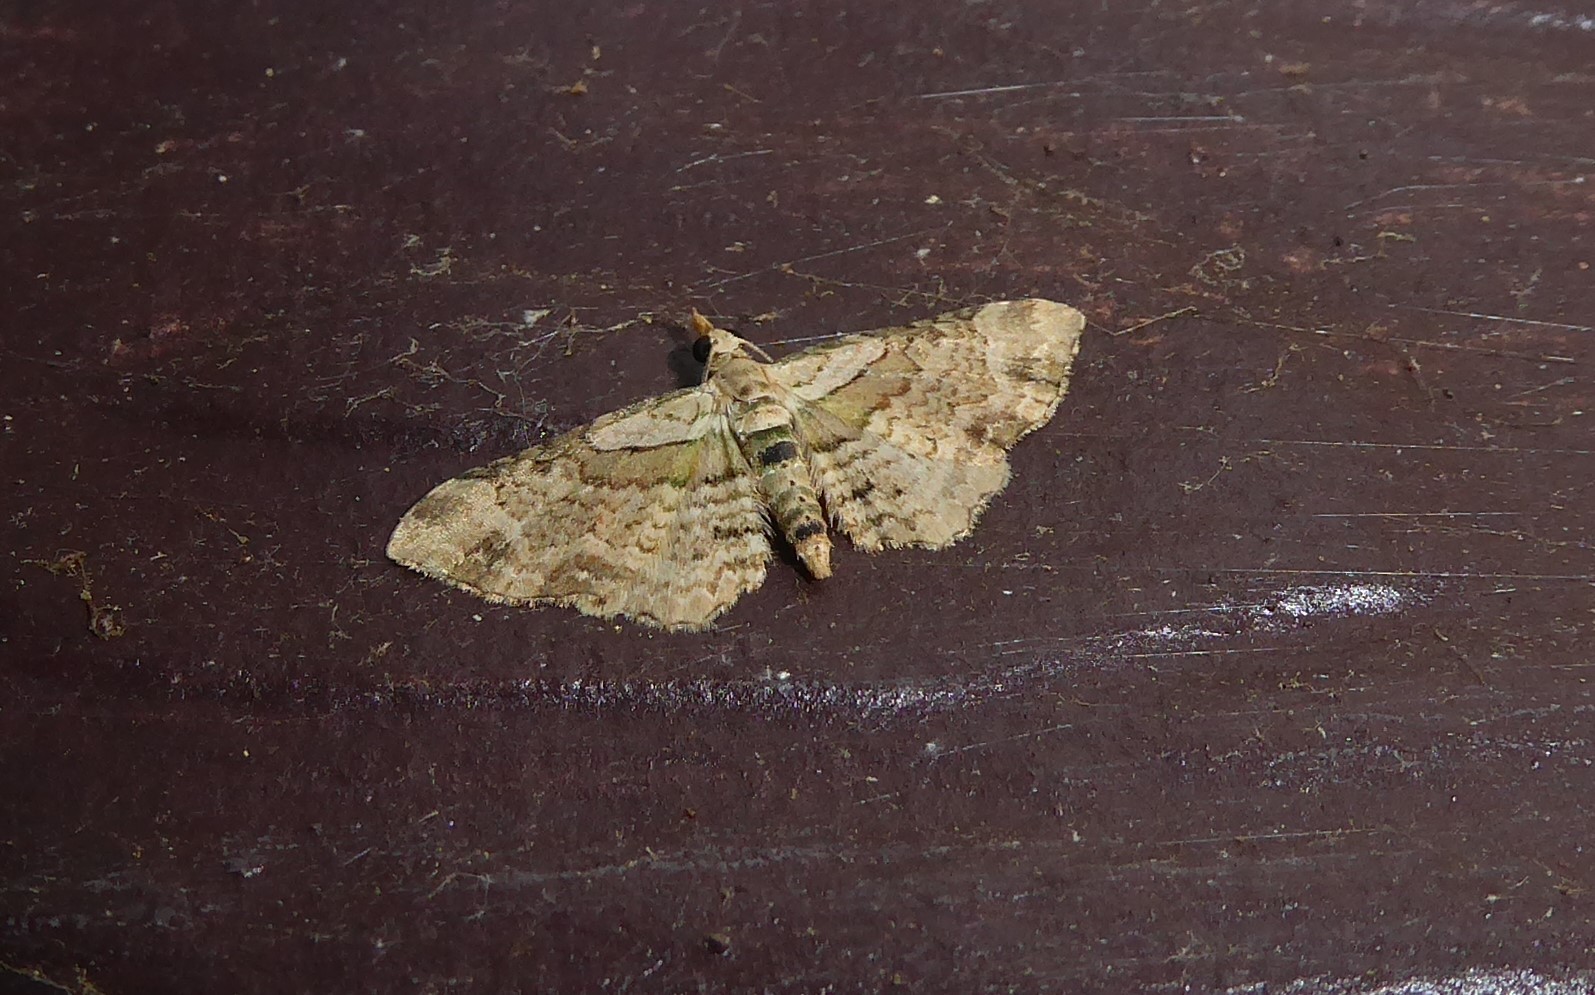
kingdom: Animalia
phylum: Arthropoda
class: Insecta
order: Lepidoptera
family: Geometridae
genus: Chloroclystis
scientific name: Chloroclystis
